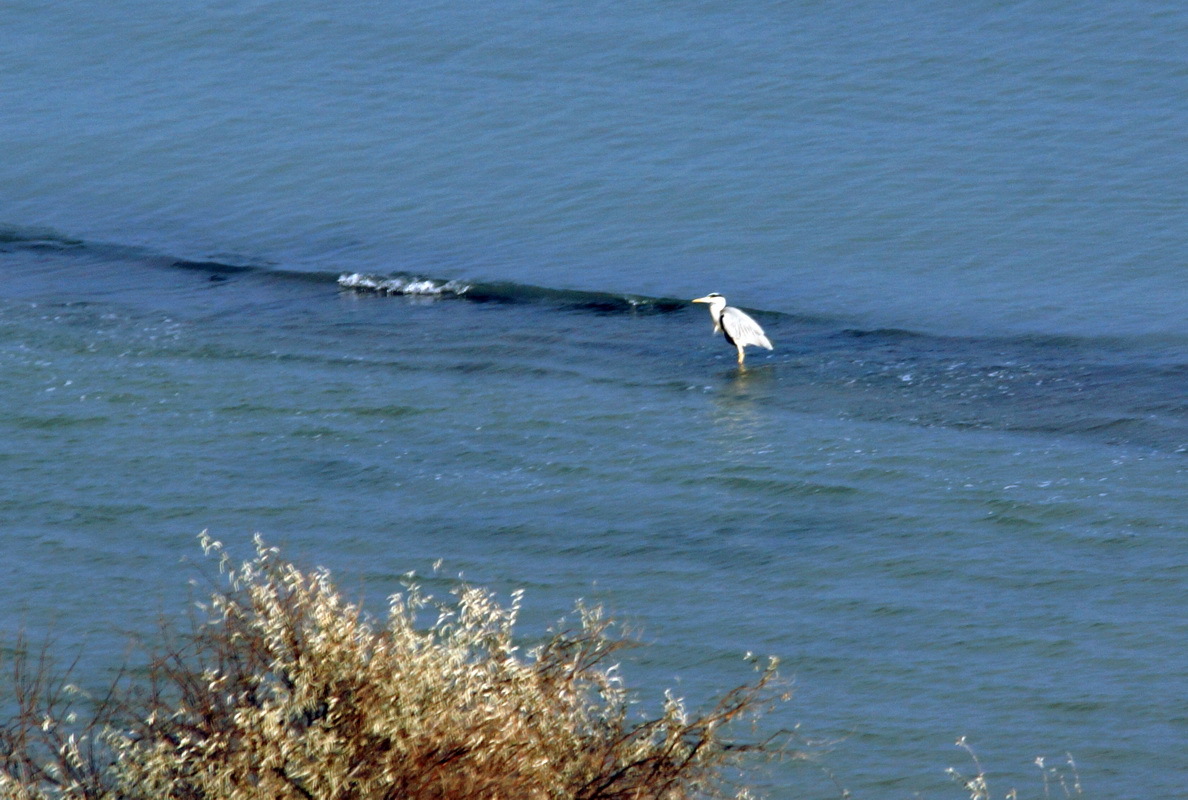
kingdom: Animalia
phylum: Chordata
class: Aves
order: Pelecaniformes
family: Ardeidae
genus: Ardea
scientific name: Ardea cinerea
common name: Grey heron
